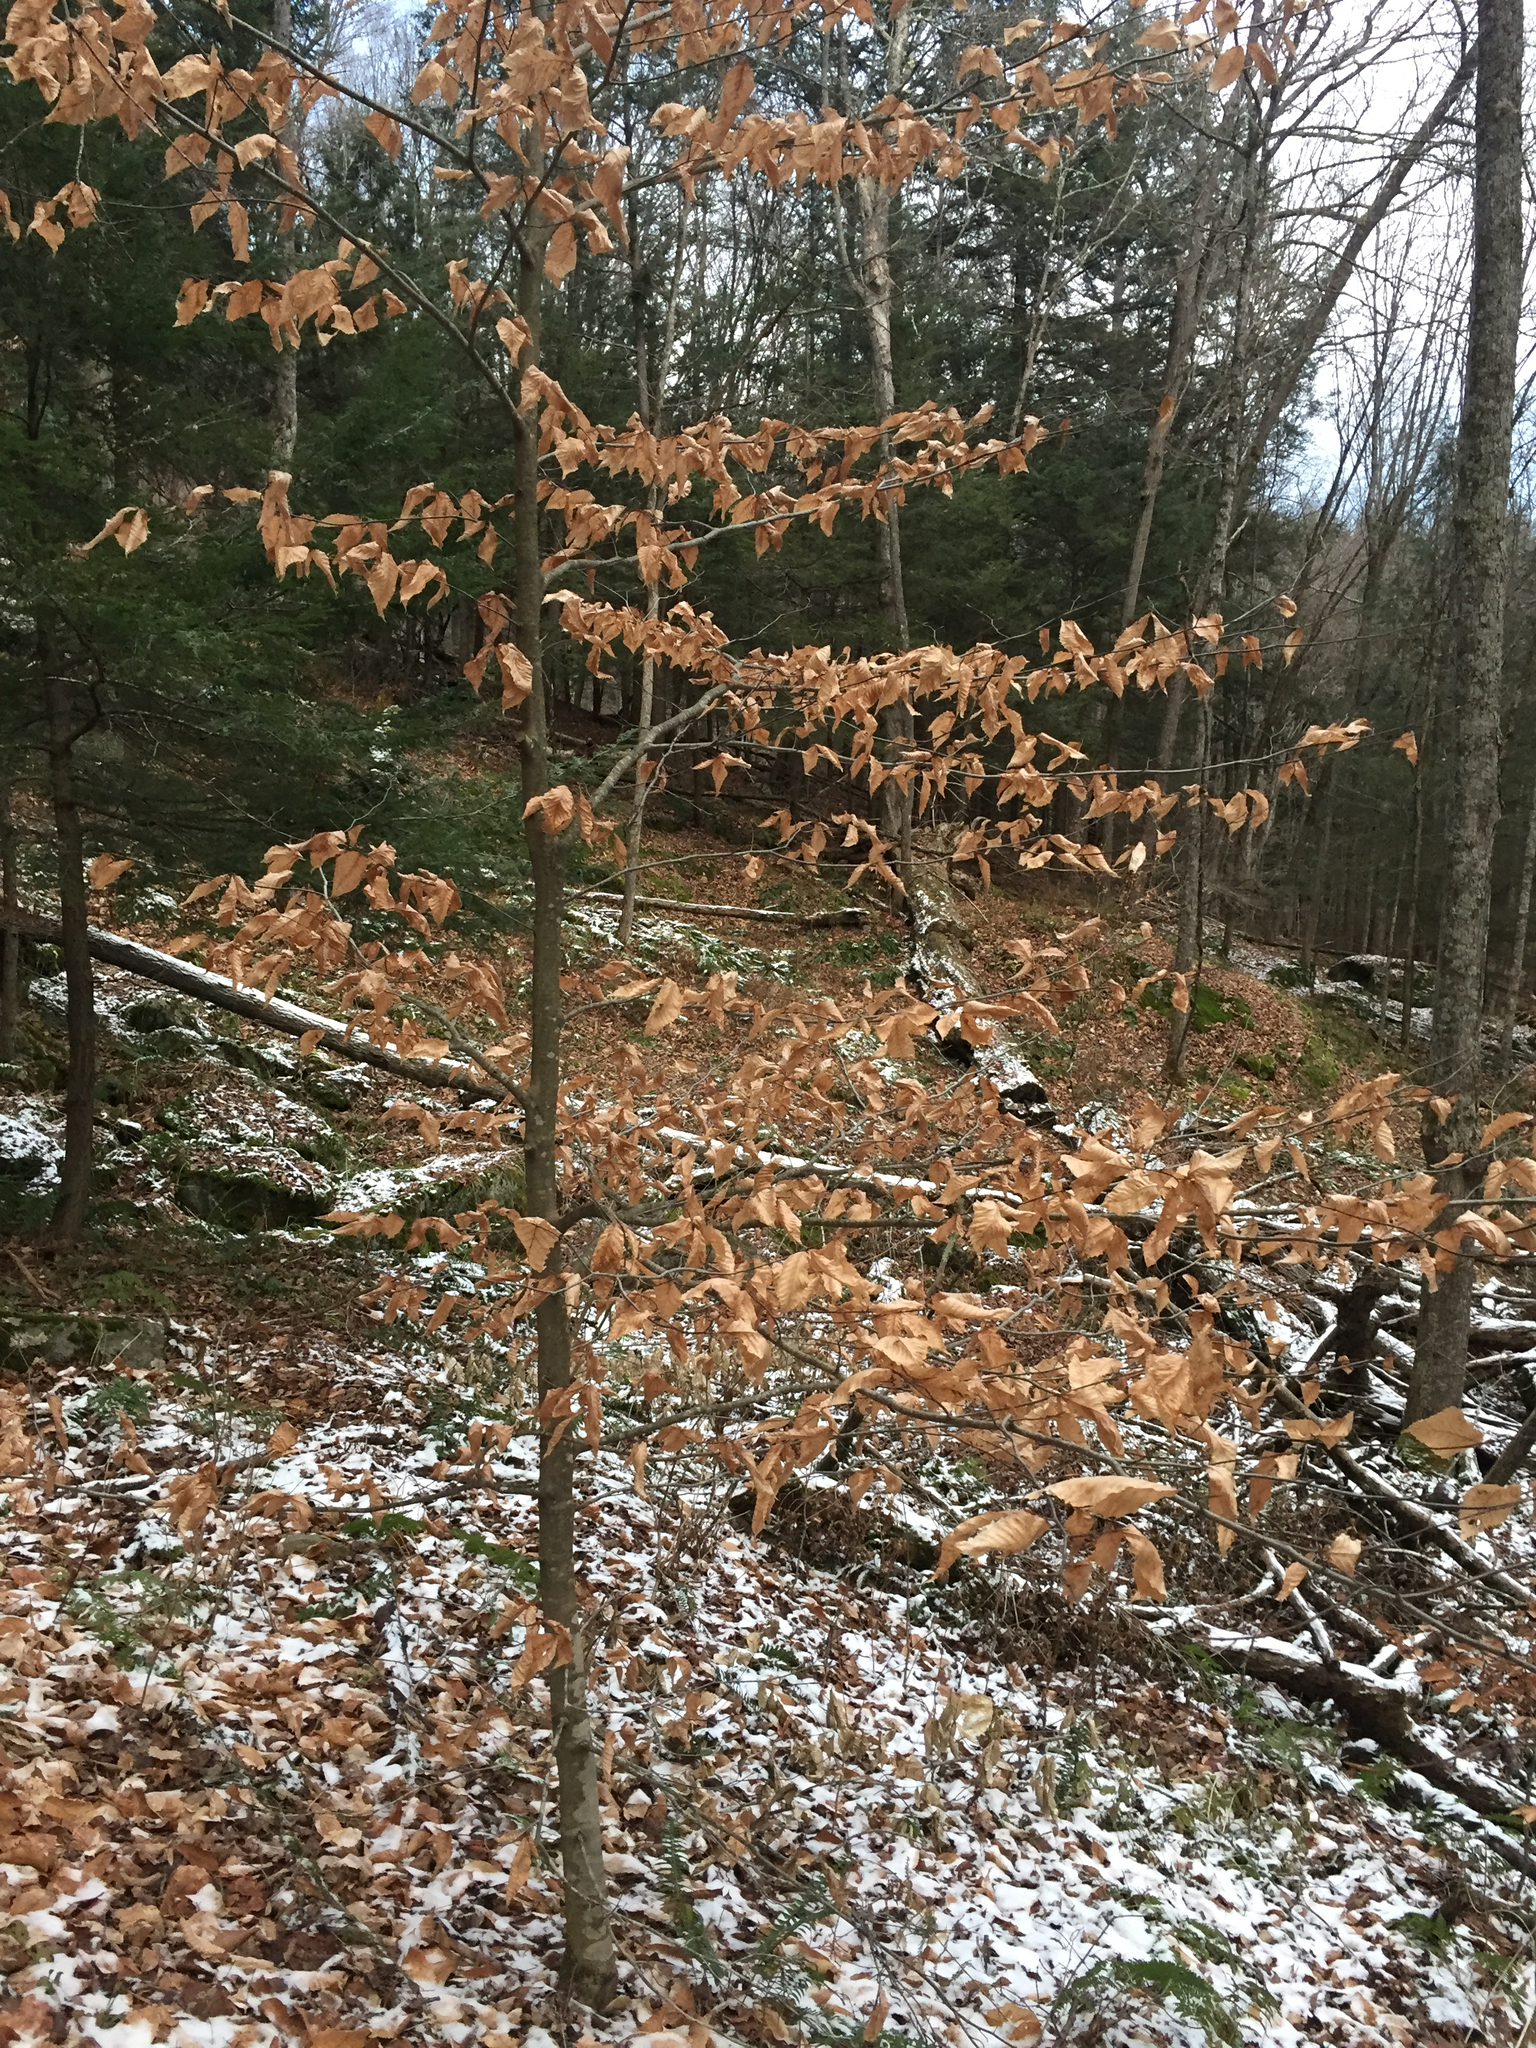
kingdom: Plantae
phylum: Tracheophyta
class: Magnoliopsida
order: Fagales
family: Fagaceae
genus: Fagus
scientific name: Fagus grandifolia
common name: American beech
